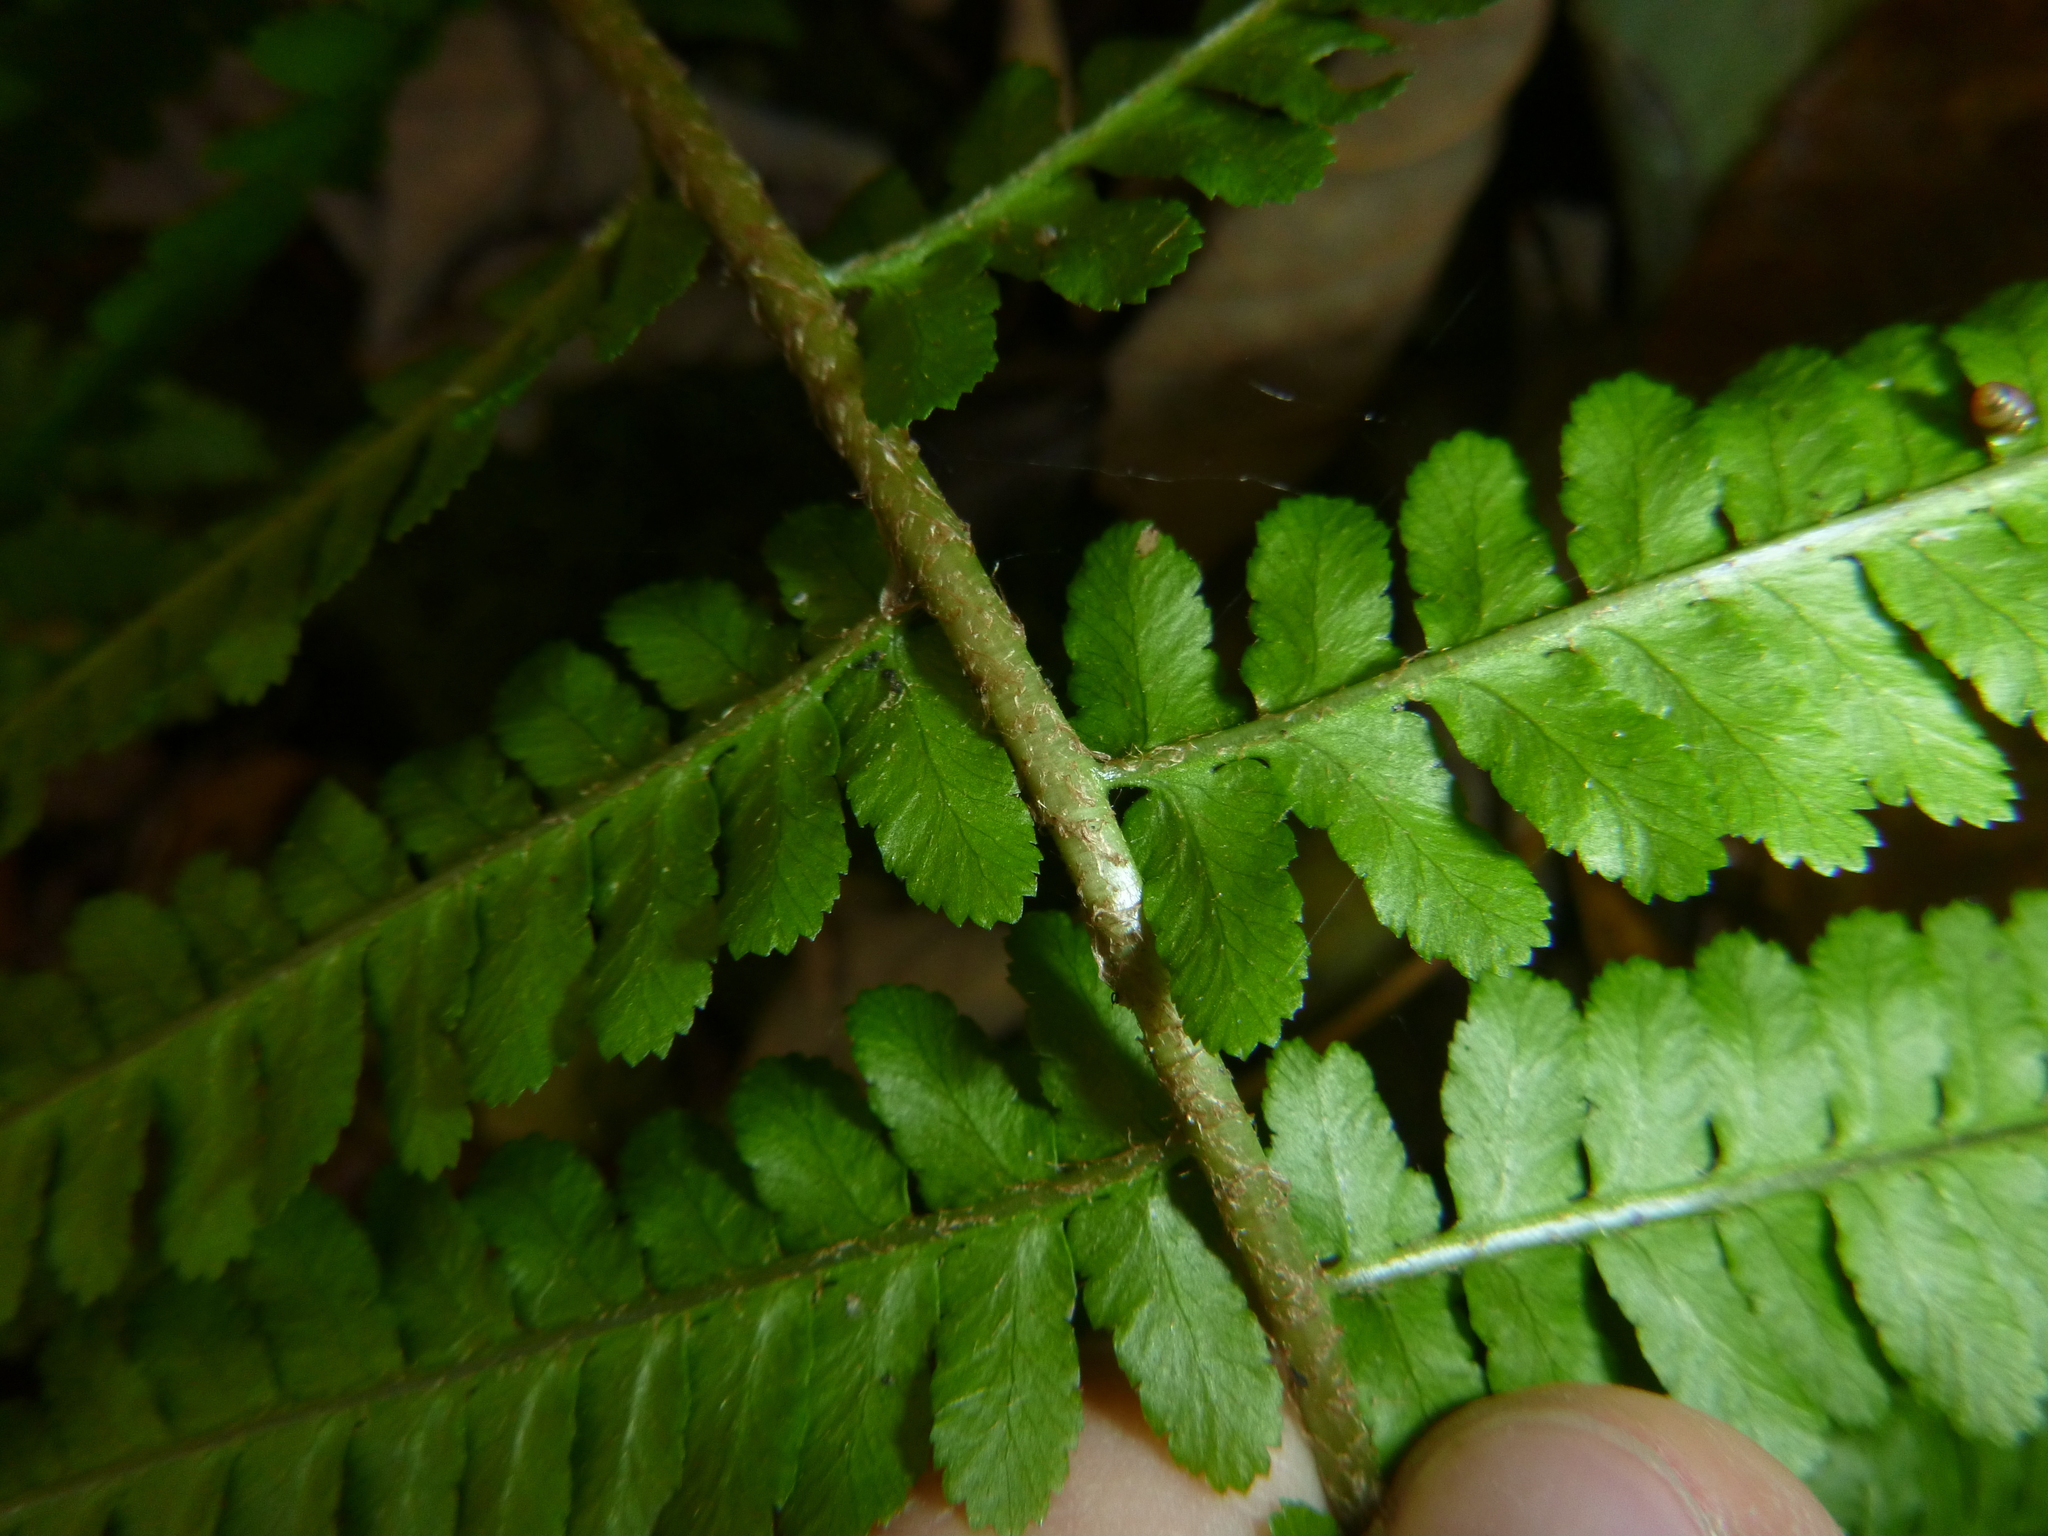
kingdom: Plantae
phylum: Tracheophyta
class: Polypodiopsida
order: Polypodiales
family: Dryopteridaceae
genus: Dryopteris
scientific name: Dryopteris filix-mas
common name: Male fern
